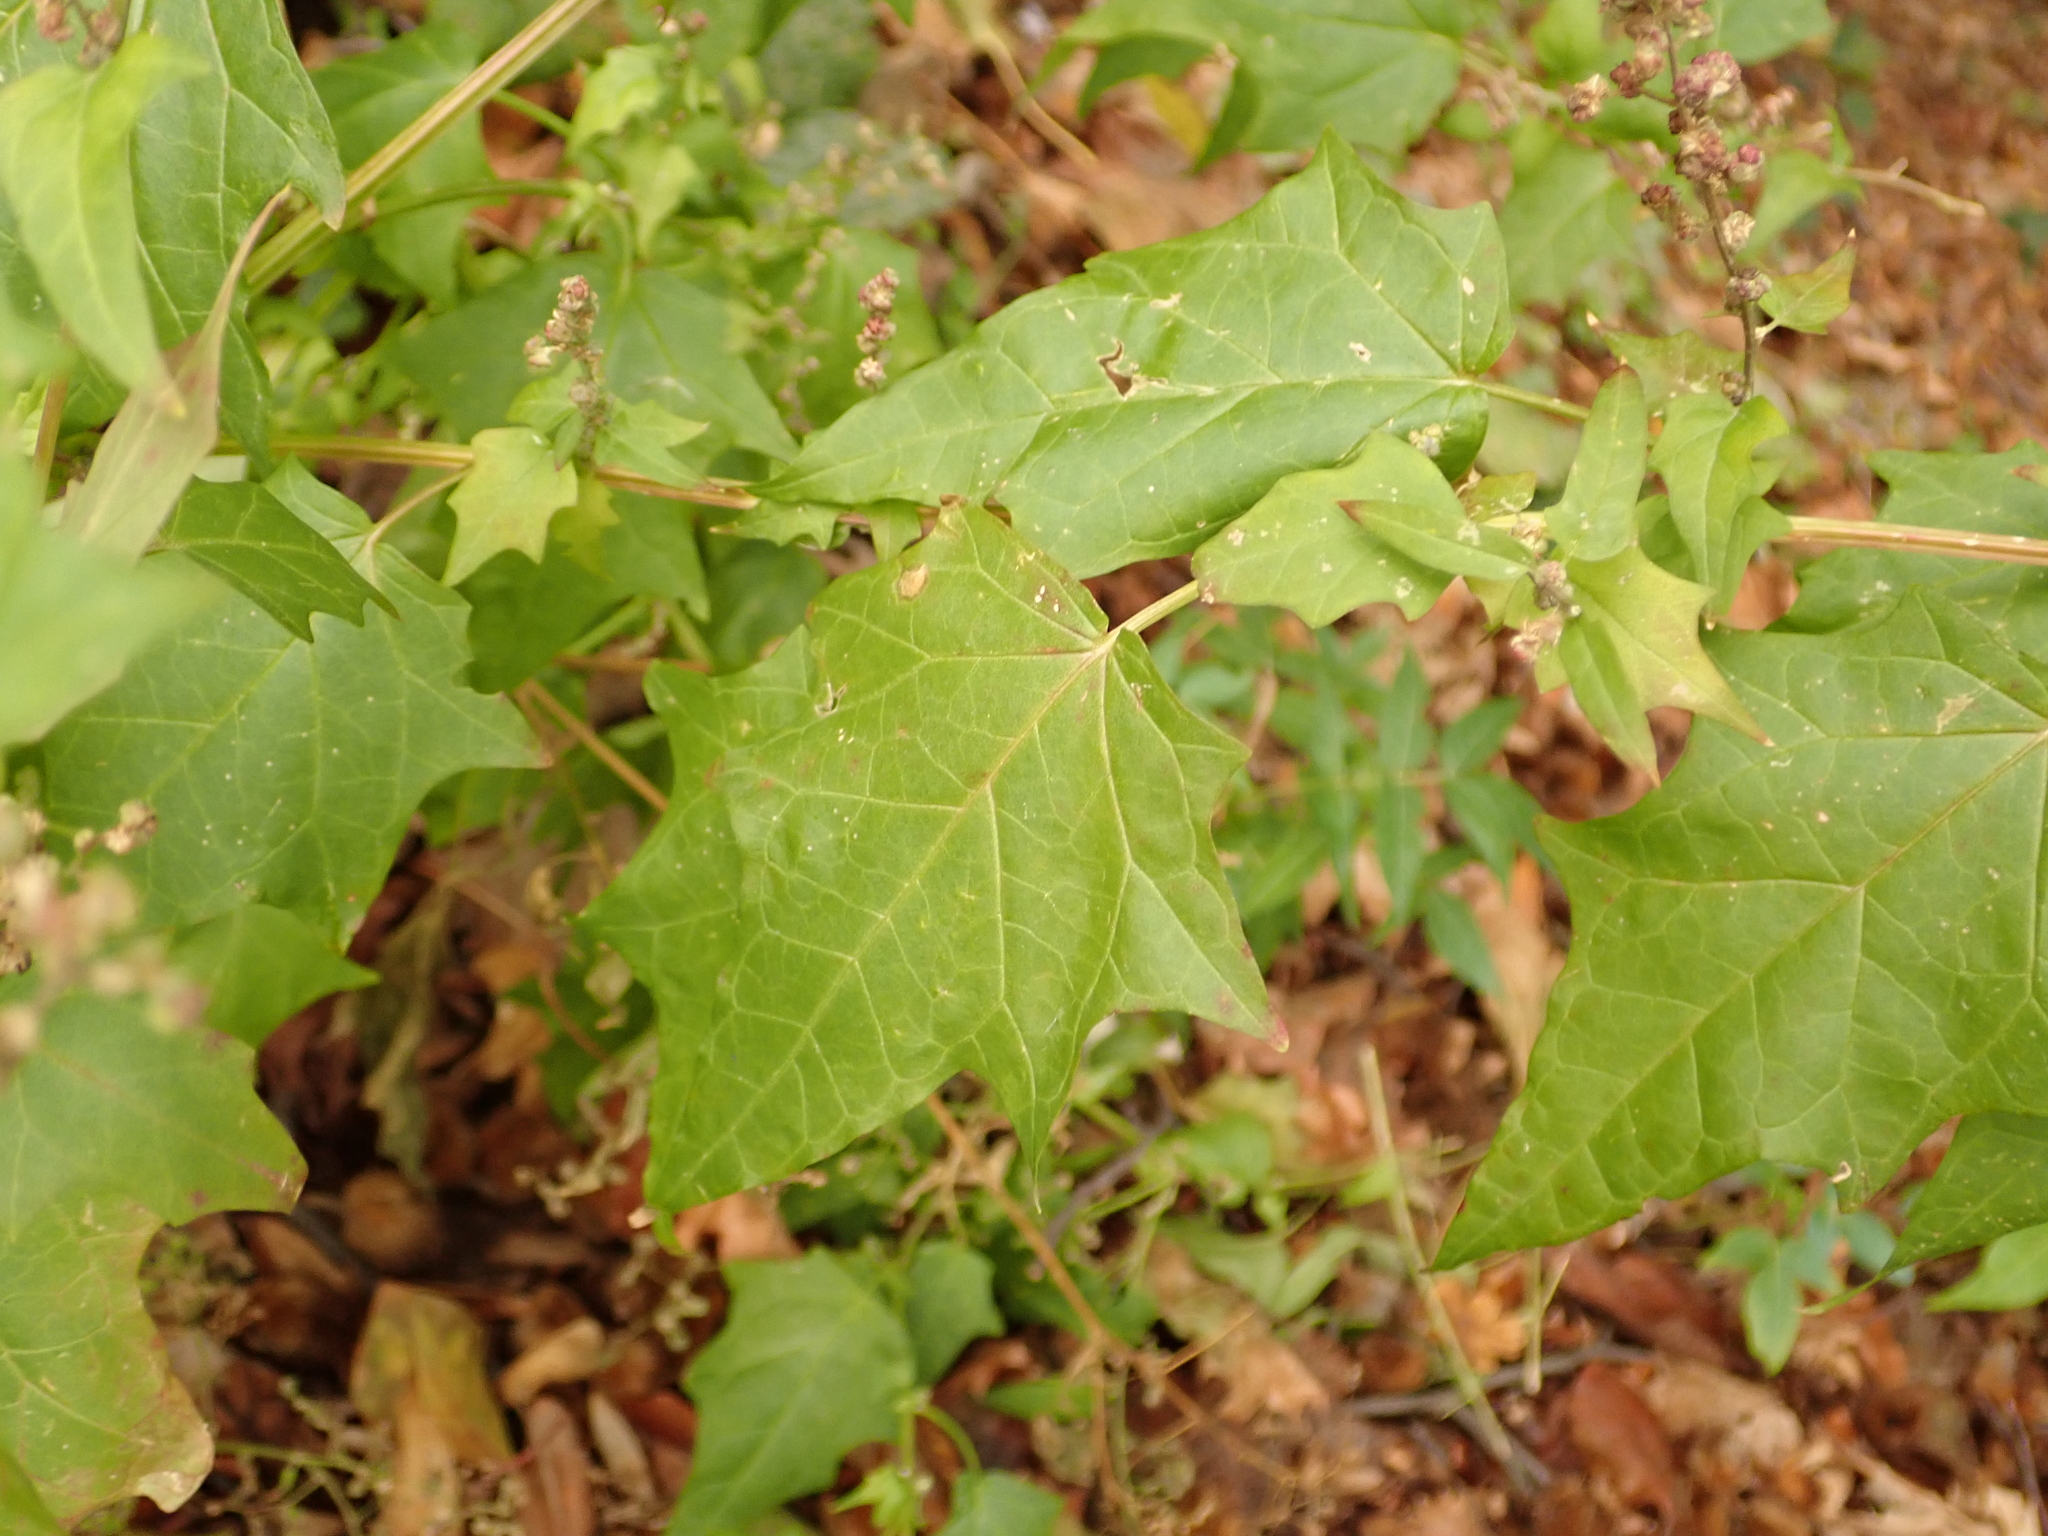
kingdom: Plantae
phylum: Tracheophyta
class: Magnoliopsida
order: Caryophyllales
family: Amaranthaceae
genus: Chenopodiastrum
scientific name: Chenopodiastrum hybridum
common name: Mapleleaf goosefoot
